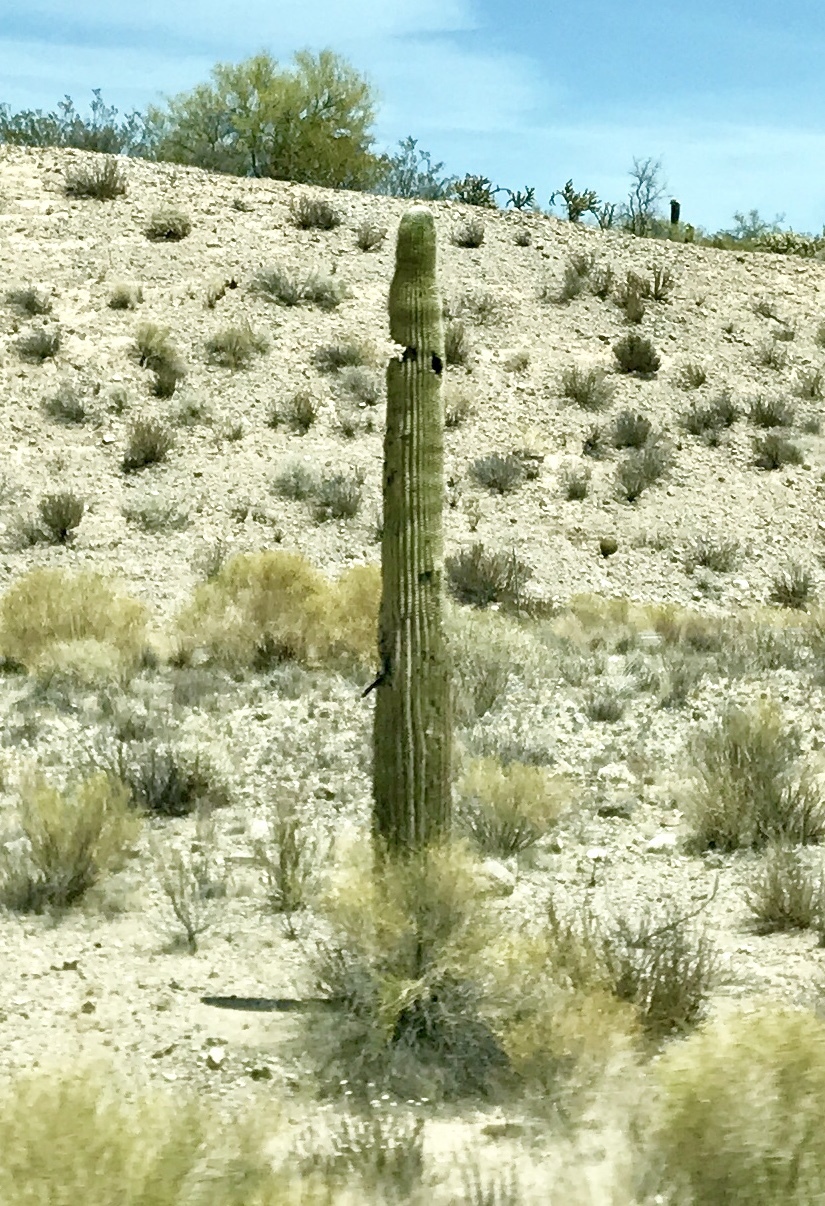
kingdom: Plantae
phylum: Tracheophyta
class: Magnoliopsida
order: Caryophyllales
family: Cactaceae
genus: Carnegiea
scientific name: Carnegiea gigantea
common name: Saguaro
